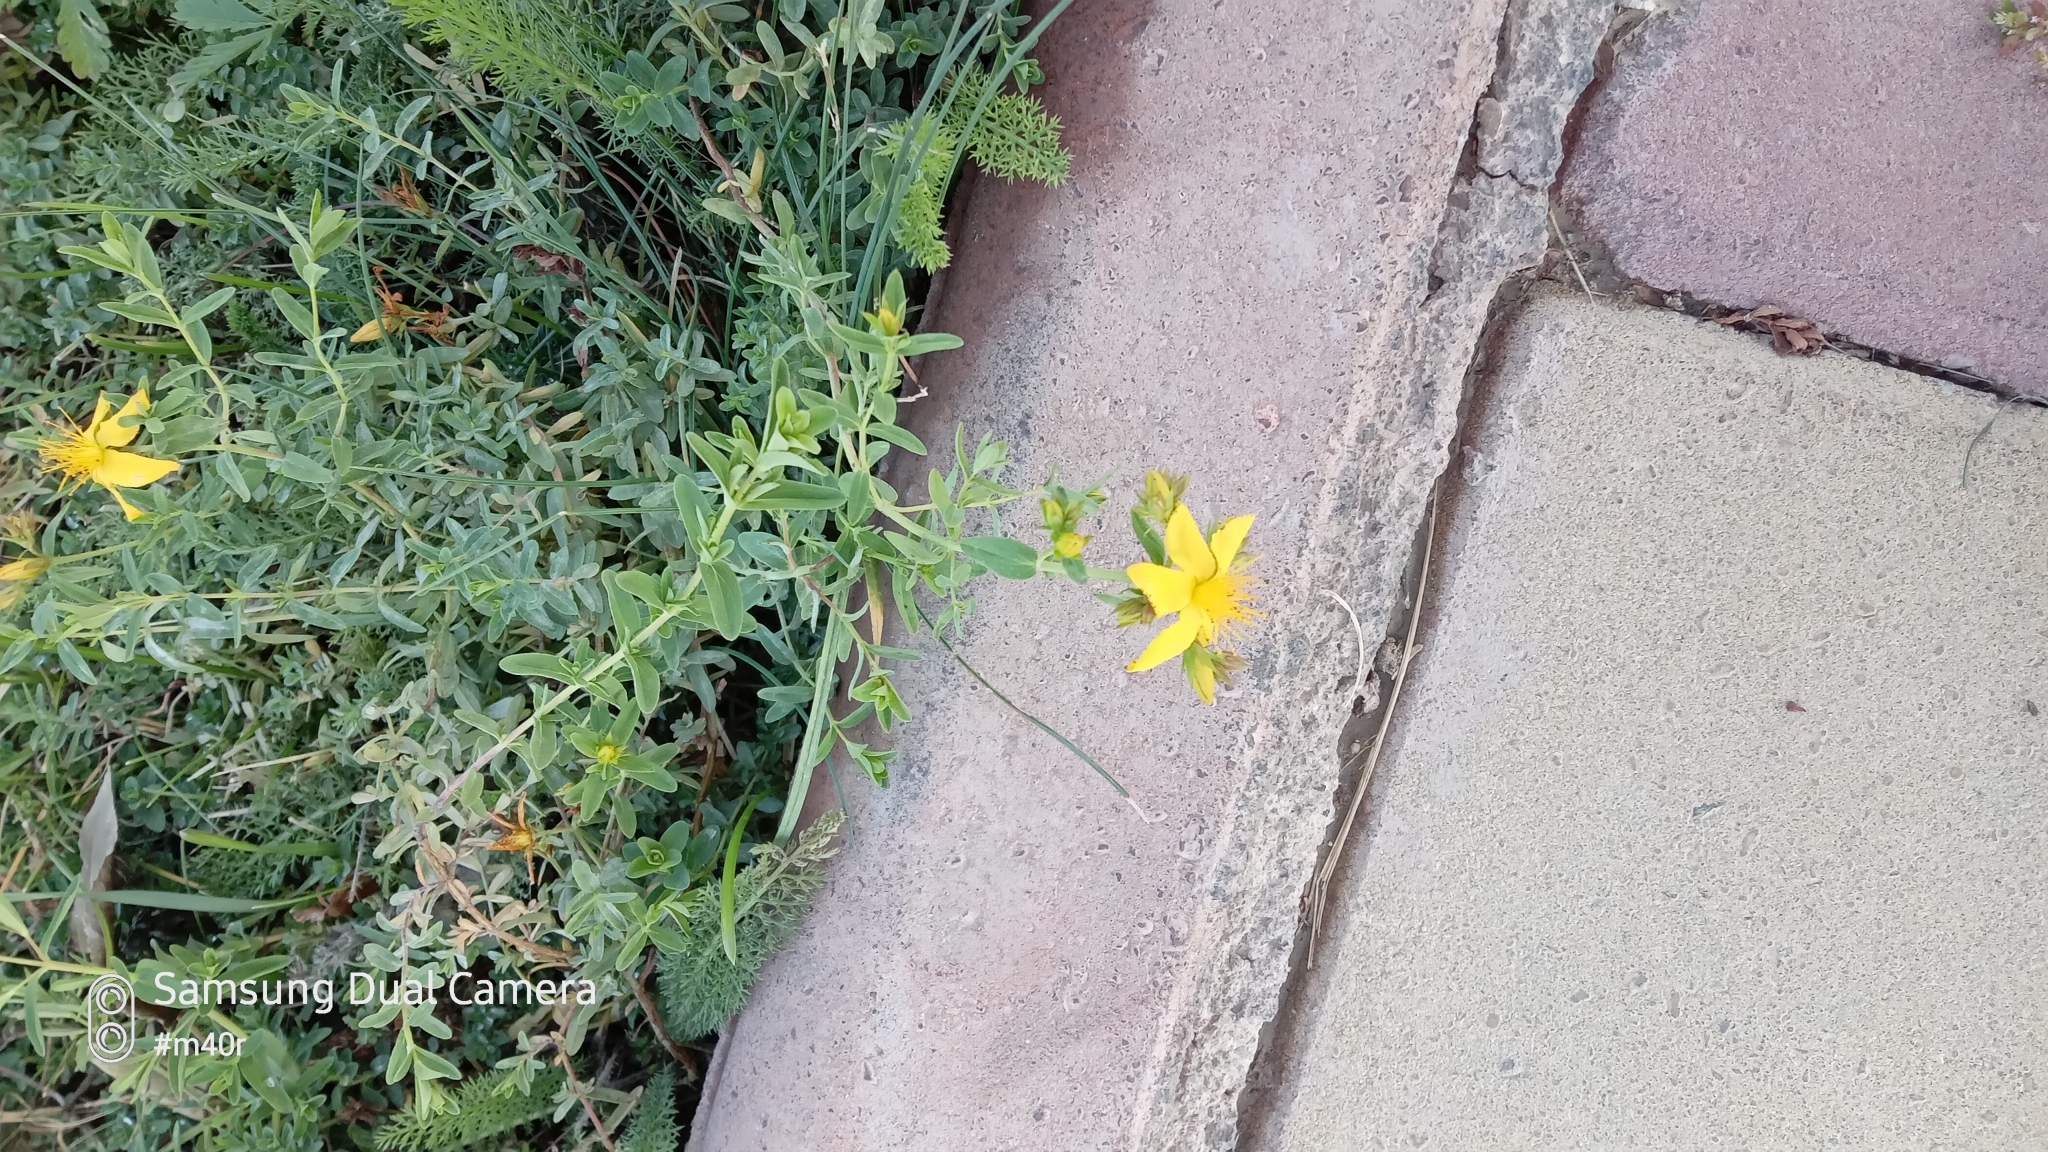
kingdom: Plantae
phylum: Tracheophyta
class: Magnoliopsida
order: Malpighiales
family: Hypericaceae
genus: Hypericum
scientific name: Hypericum perforatum
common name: Common st. johnswort
